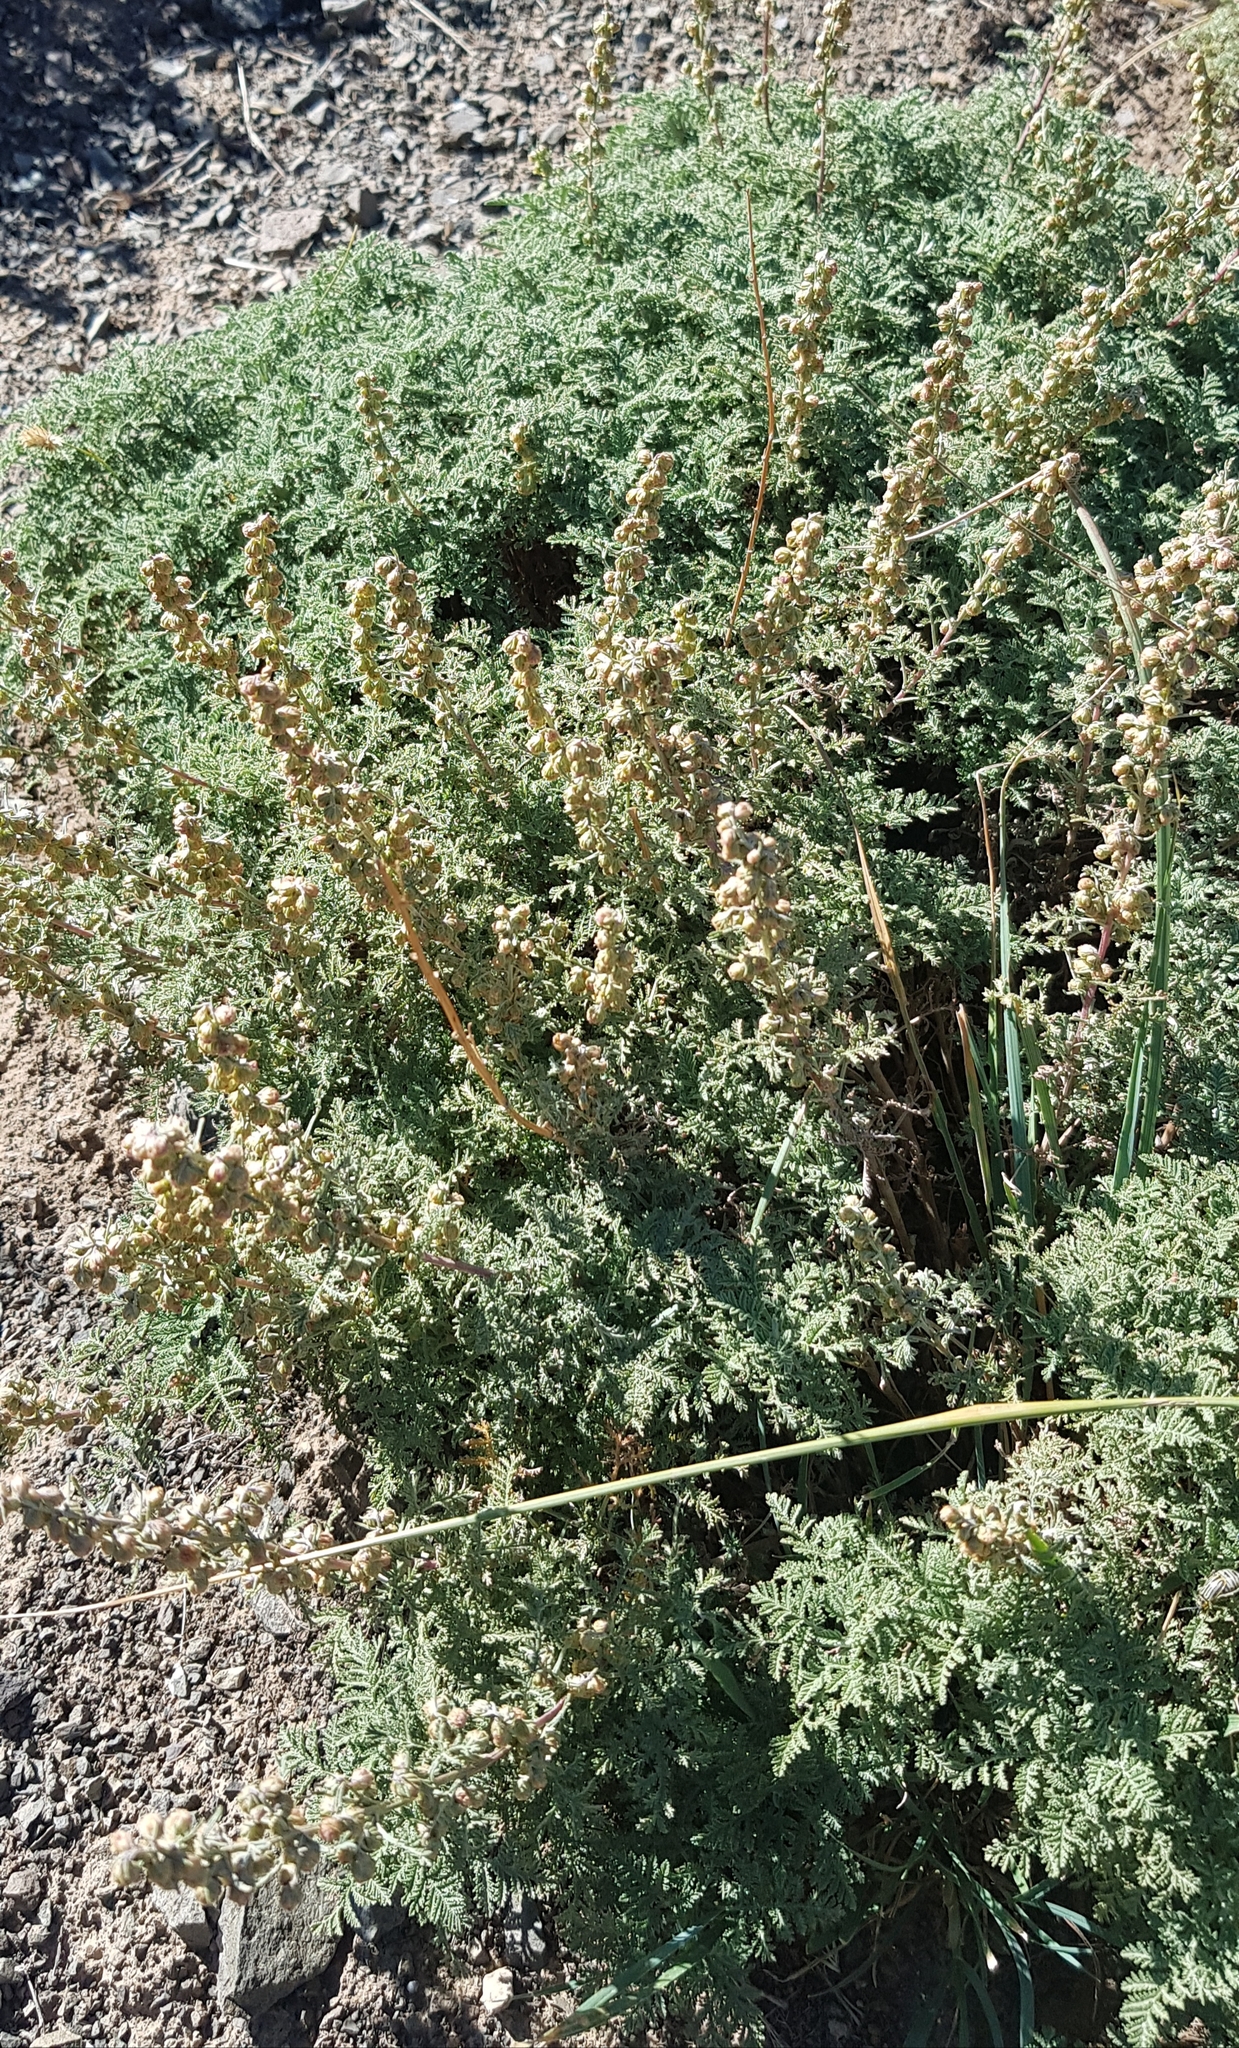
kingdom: Plantae
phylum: Tracheophyta
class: Magnoliopsida
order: Asterales
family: Asteraceae
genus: Artemisia
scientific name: Artemisia
